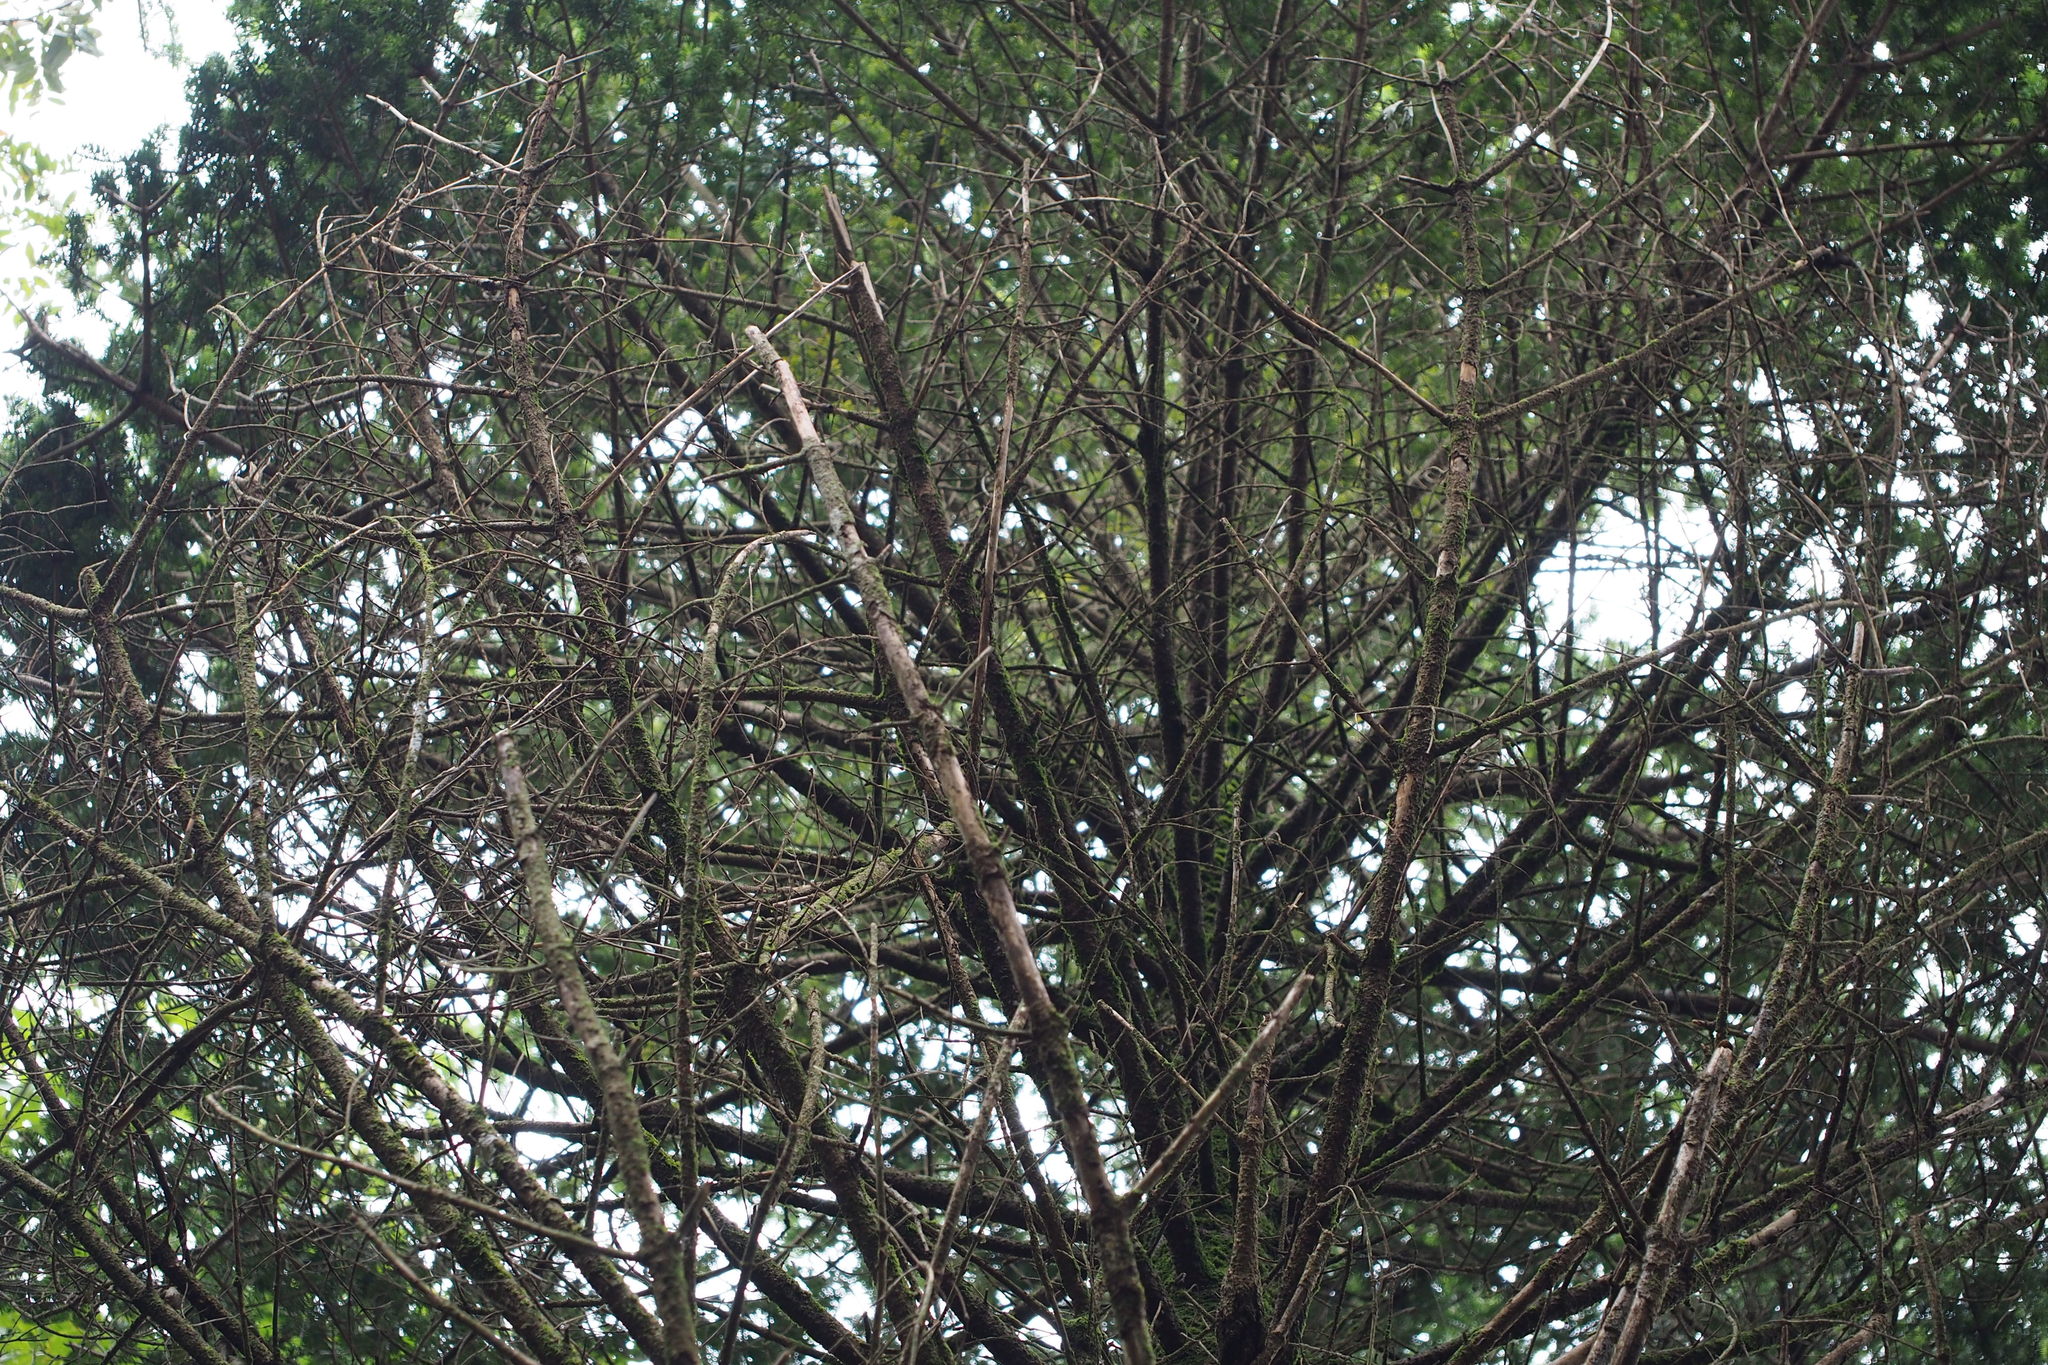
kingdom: Plantae
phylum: Tracheophyta
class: Pinopsida
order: Pinales
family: Pinaceae
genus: Abies
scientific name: Abies homolepis
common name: Nikko fir
